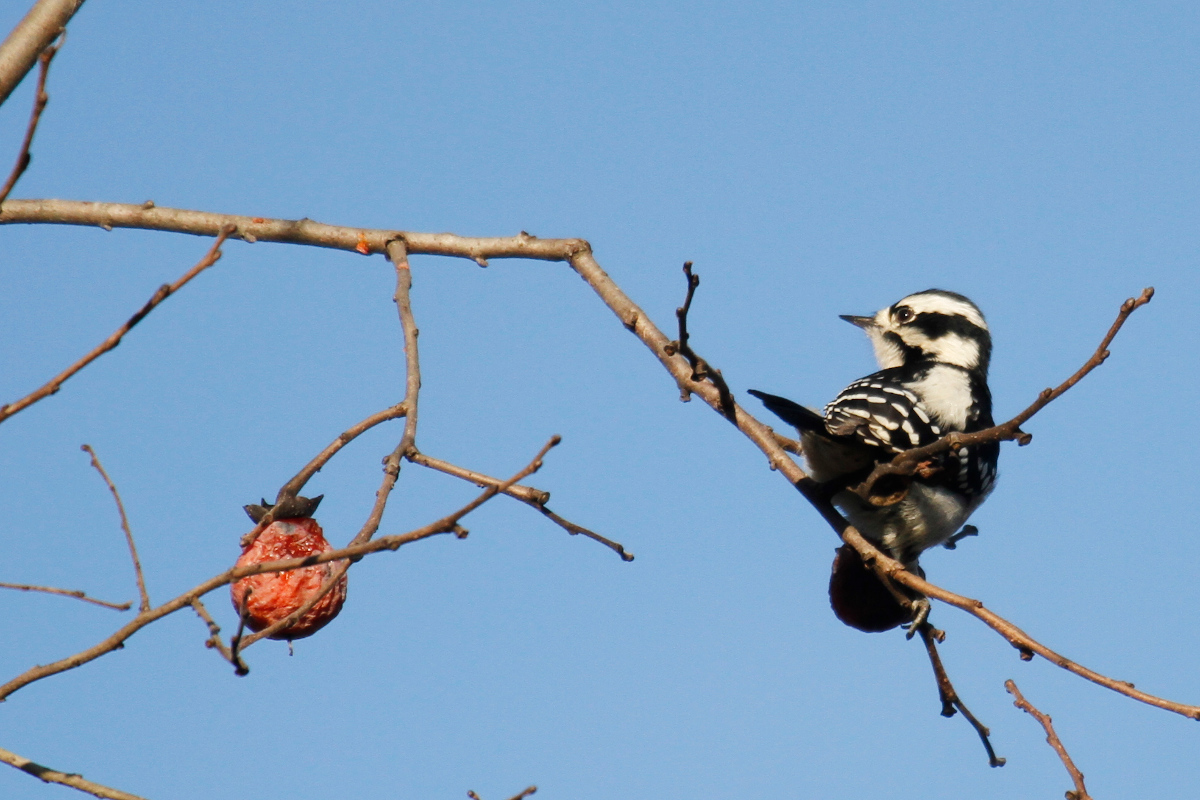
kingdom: Animalia
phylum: Chordata
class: Aves
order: Piciformes
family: Picidae
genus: Dryobates
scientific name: Dryobates pubescens
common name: Downy woodpecker
